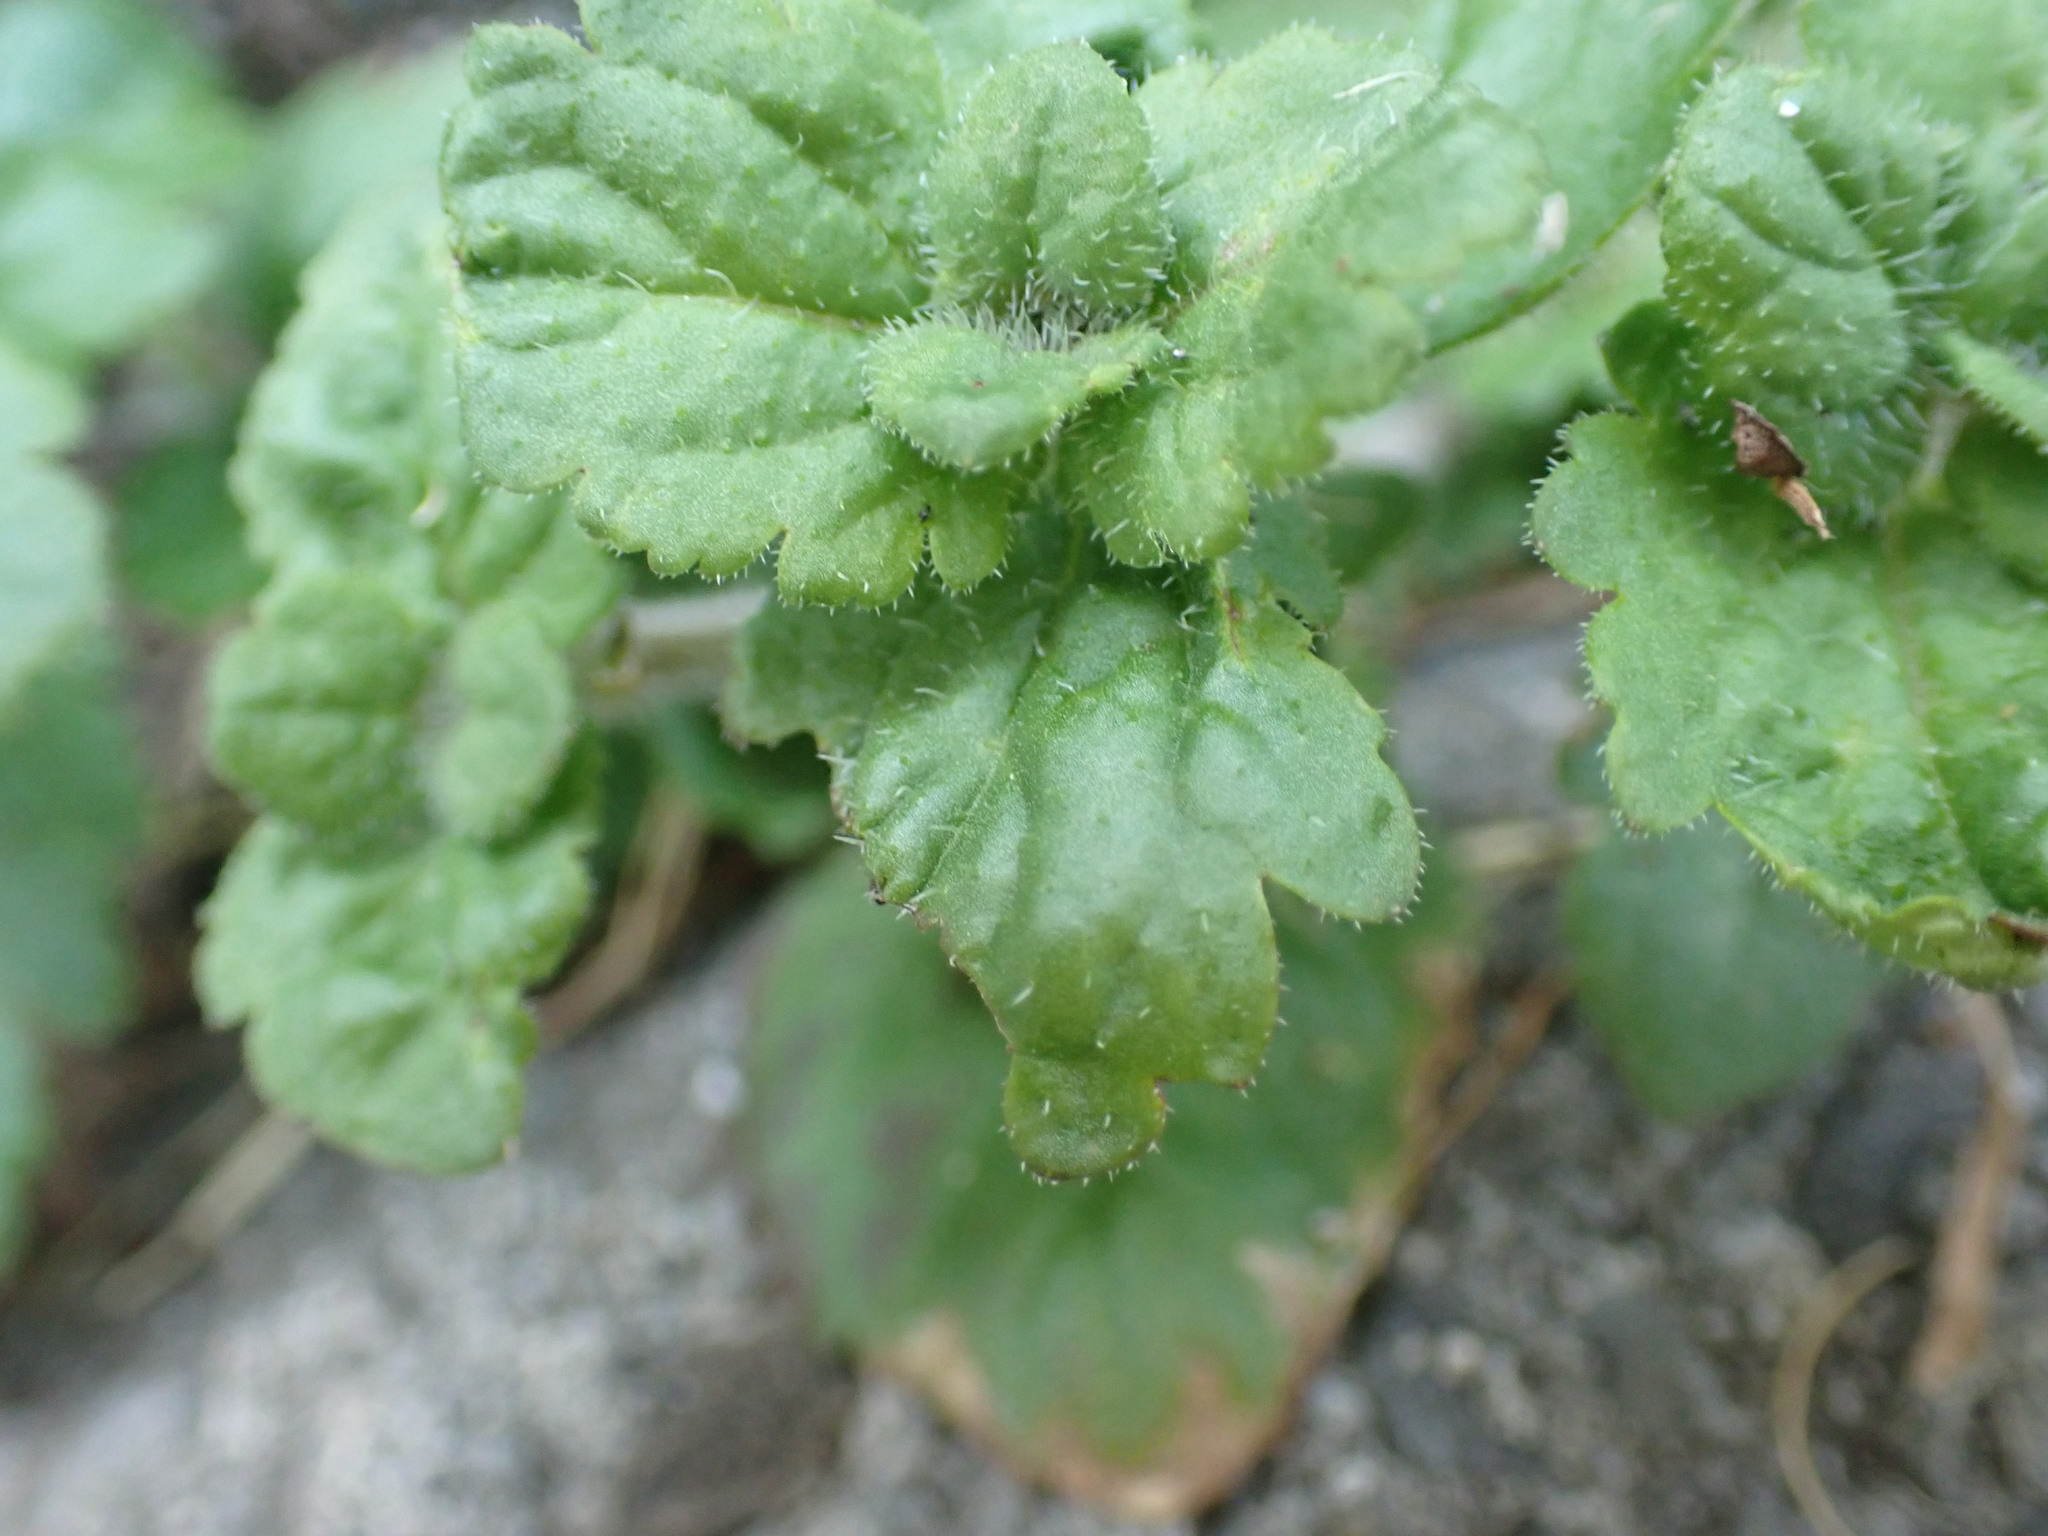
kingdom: Plantae
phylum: Tracheophyta
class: Magnoliopsida
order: Lamiales
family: Plantaginaceae
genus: Veronica
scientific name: Veronica persica
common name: Common field-speedwell
